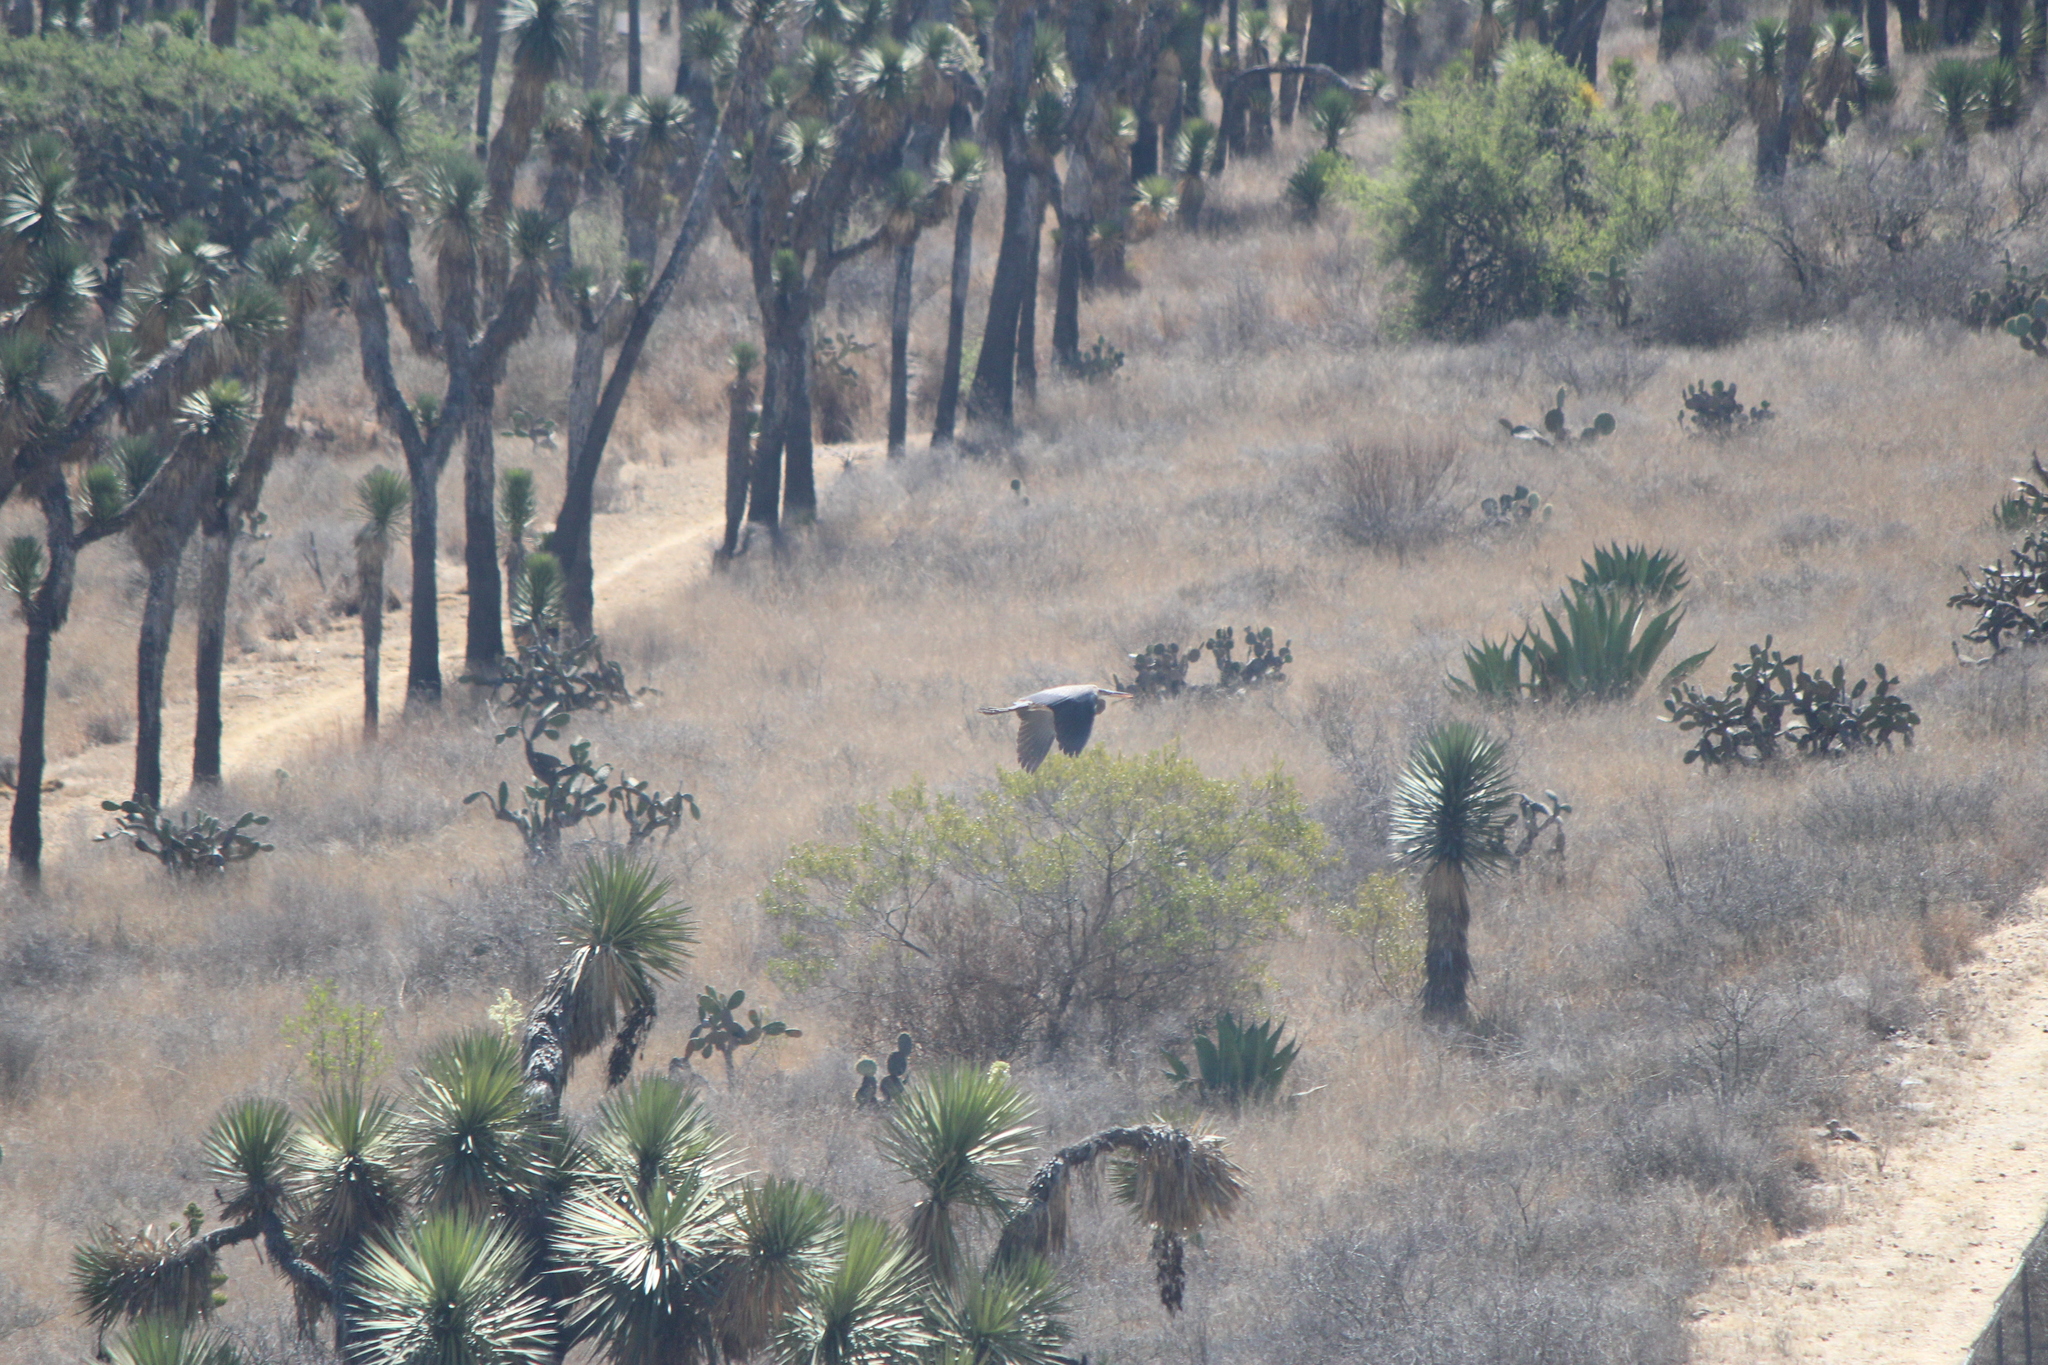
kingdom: Animalia
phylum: Chordata
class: Aves
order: Pelecaniformes
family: Ardeidae
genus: Ardea
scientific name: Ardea herodias
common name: Great blue heron
